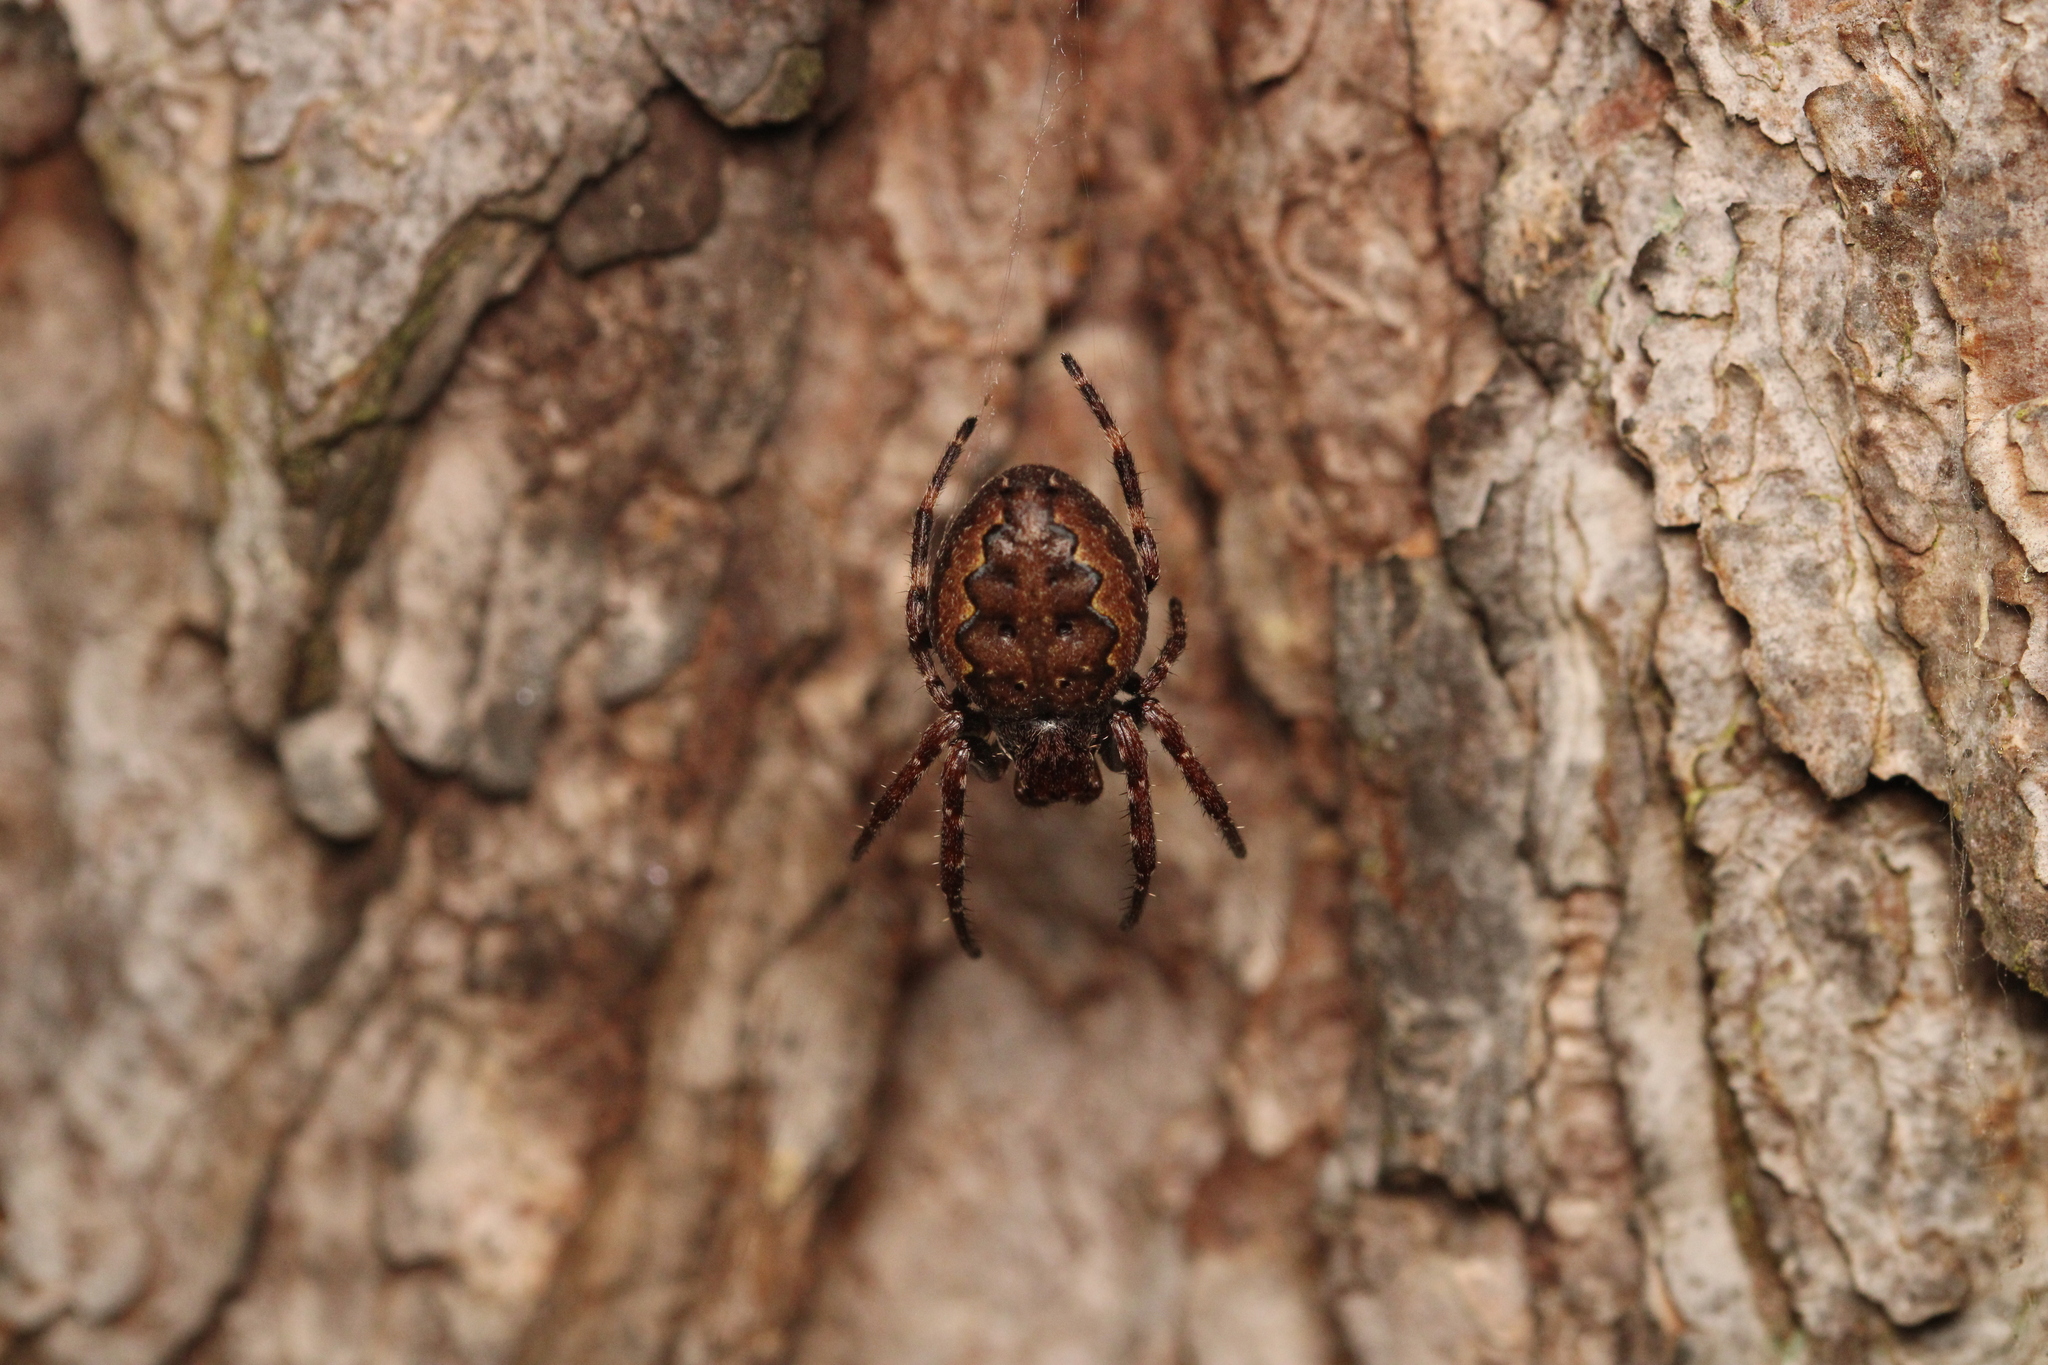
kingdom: Animalia
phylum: Arthropoda
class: Arachnida
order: Araneae
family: Araneidae
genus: Nuctenea
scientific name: Nuctenea umbratica
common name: Toad spider
